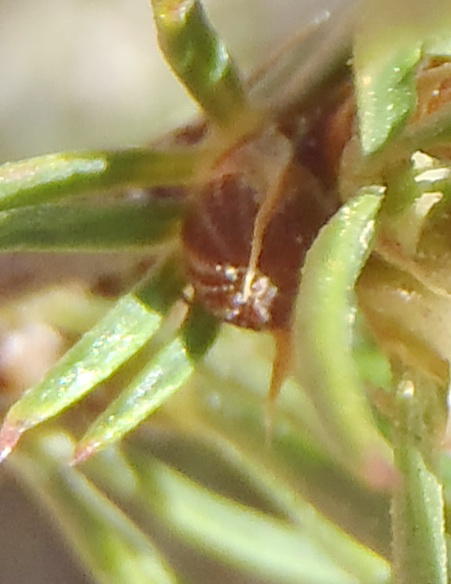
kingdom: Plantae
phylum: Tracheophyta
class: Magnoliopsida
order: Rosales
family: Rosaceae
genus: Cliffortia
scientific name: Cliffortia atrata
